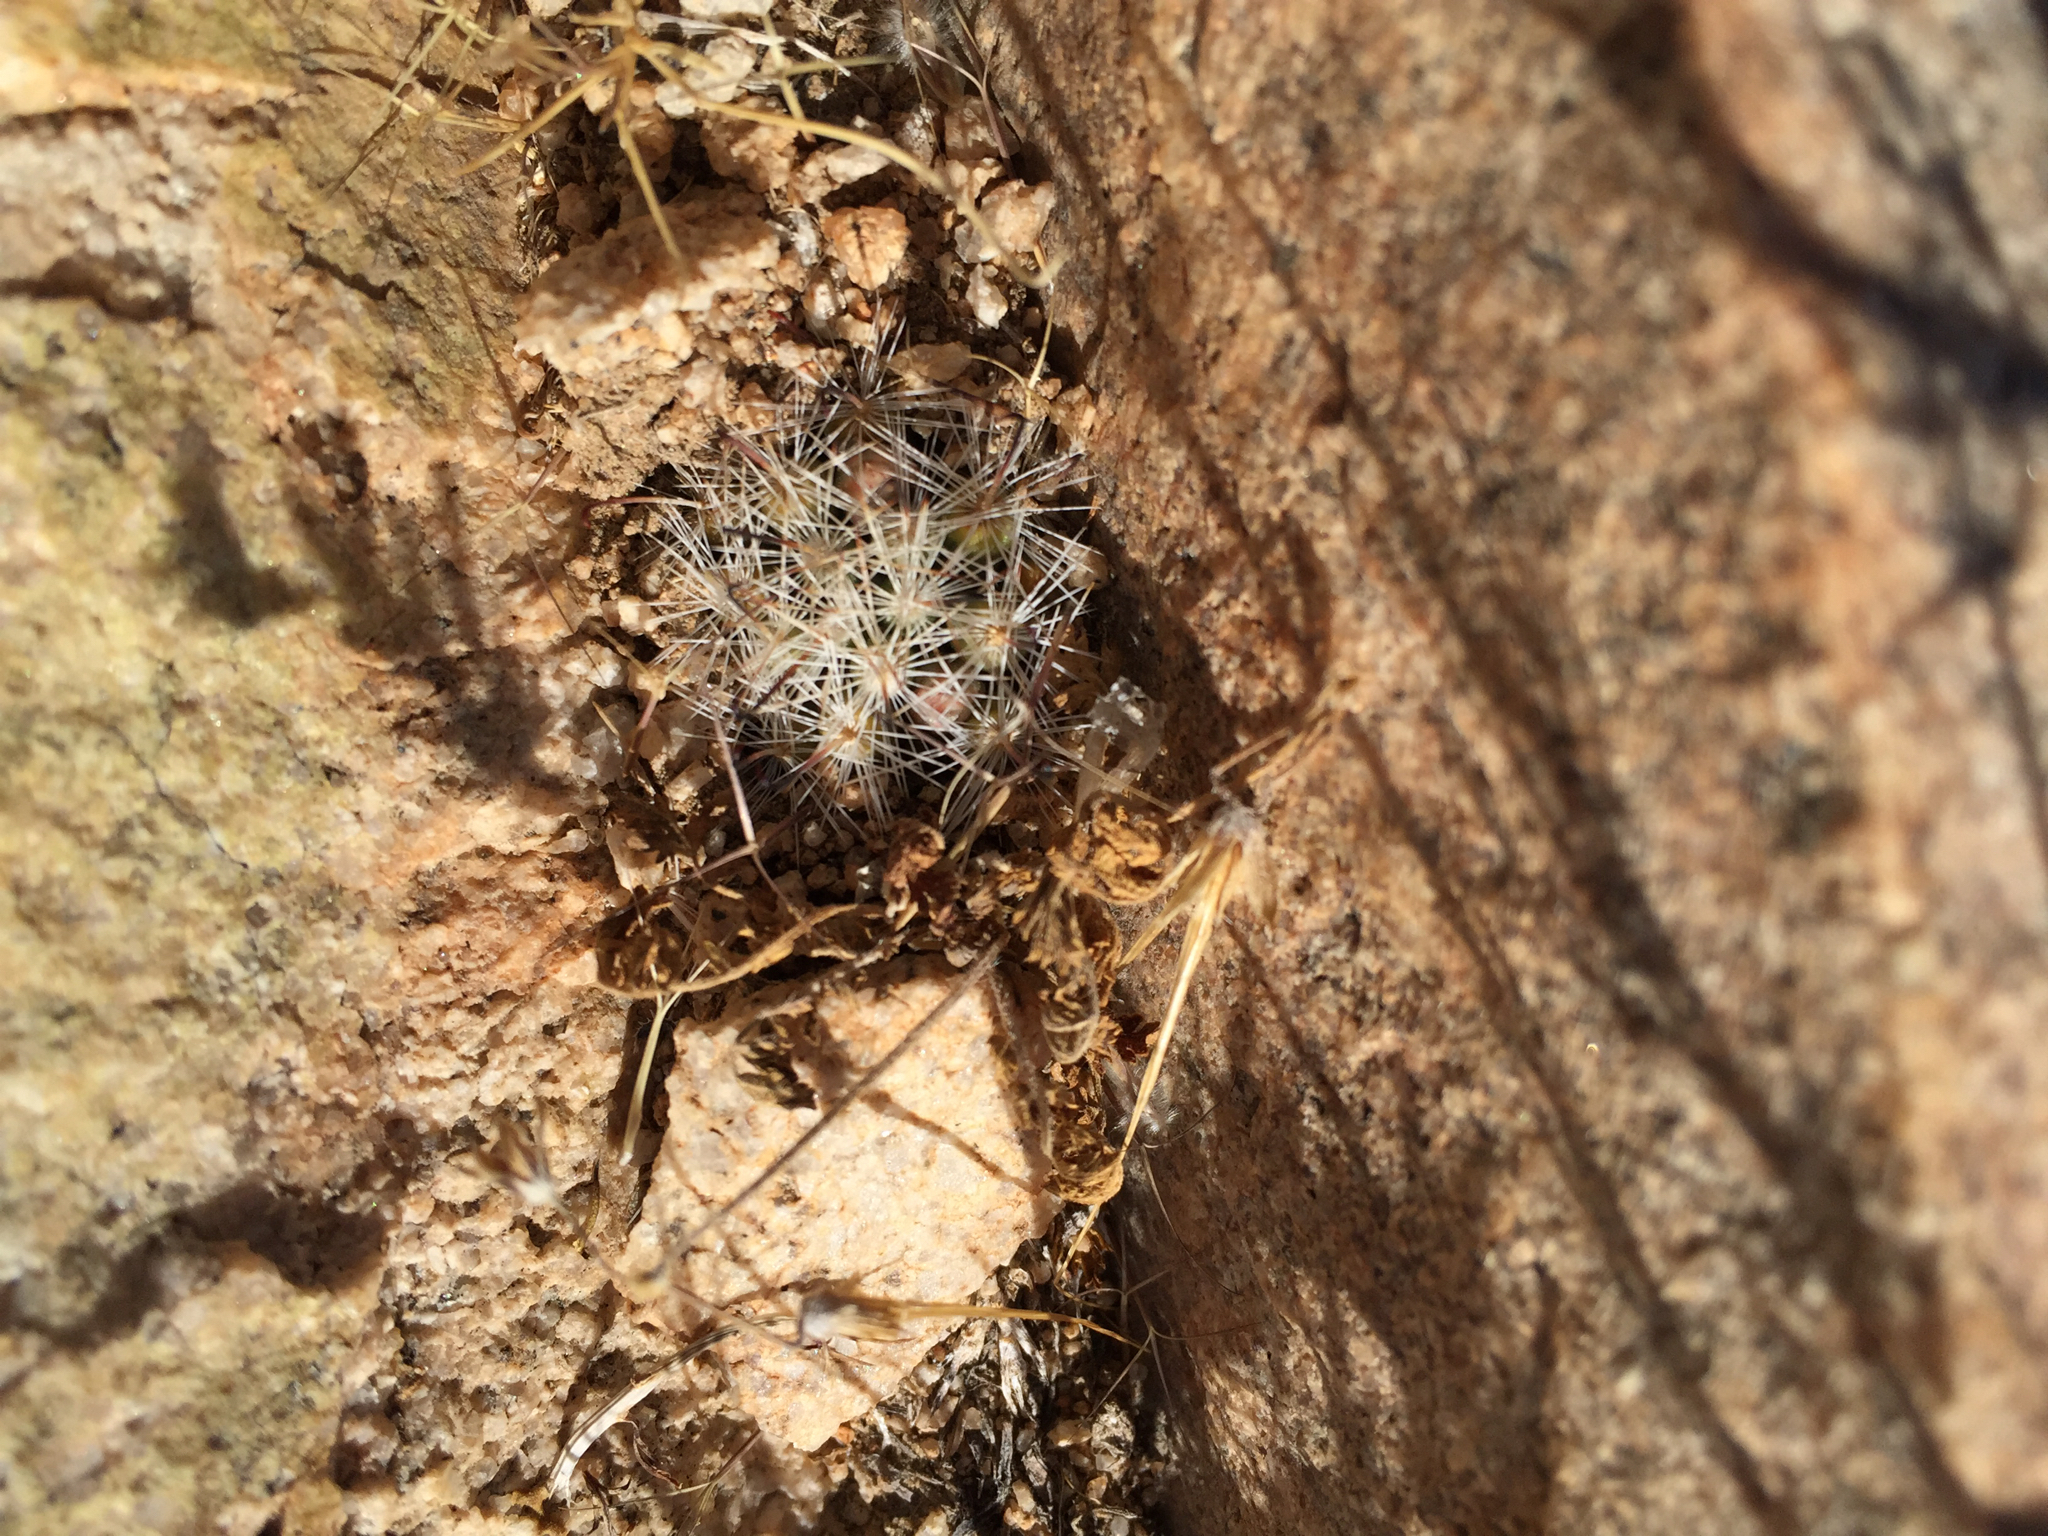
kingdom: Plantae
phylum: Tracheophyta
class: Magnoliopsida
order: Caryophyllales
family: Cactaceae
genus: Cochemiea
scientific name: Cochemiea tetrancistra
